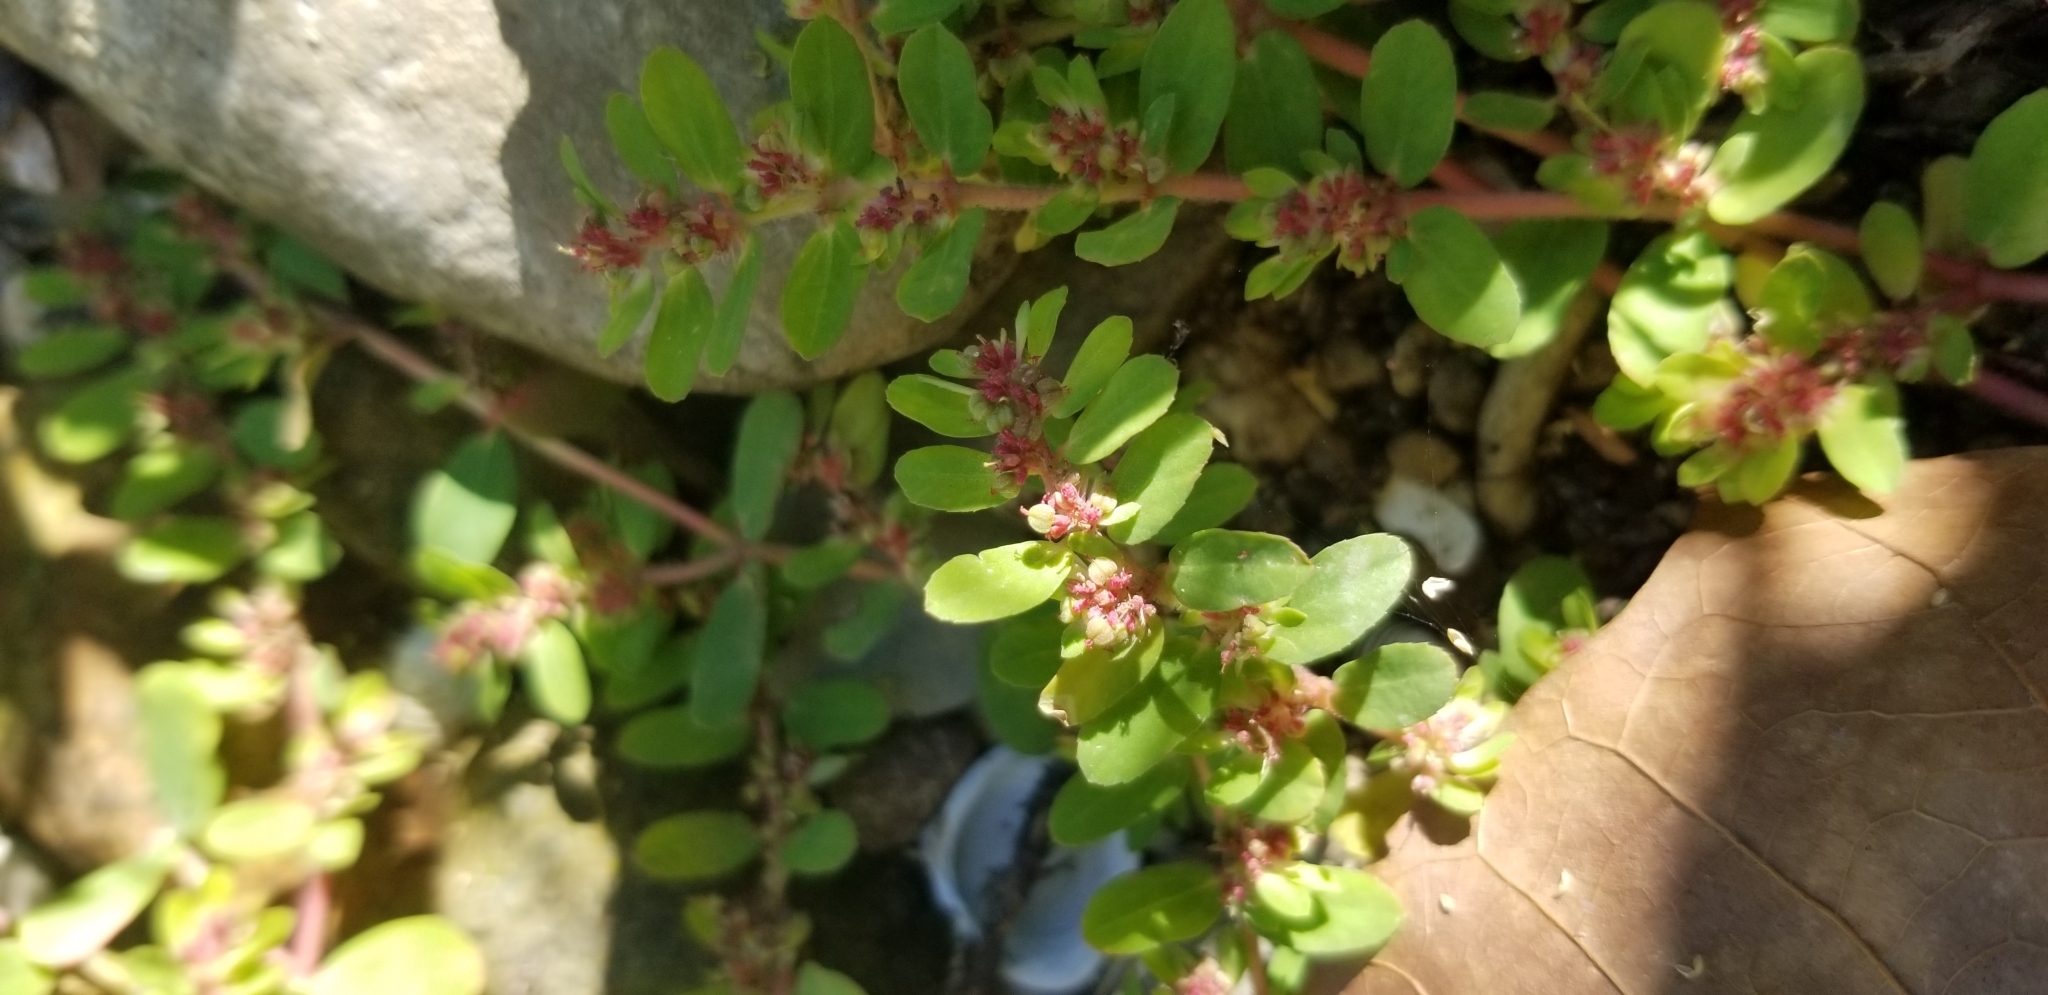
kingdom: Plantae
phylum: Tracheophyta
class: Magnoliopsida
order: Malpighiales
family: Euphorbiaceae
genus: Euphorbia
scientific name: Euphorbia maculata
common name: Spotted spurge
